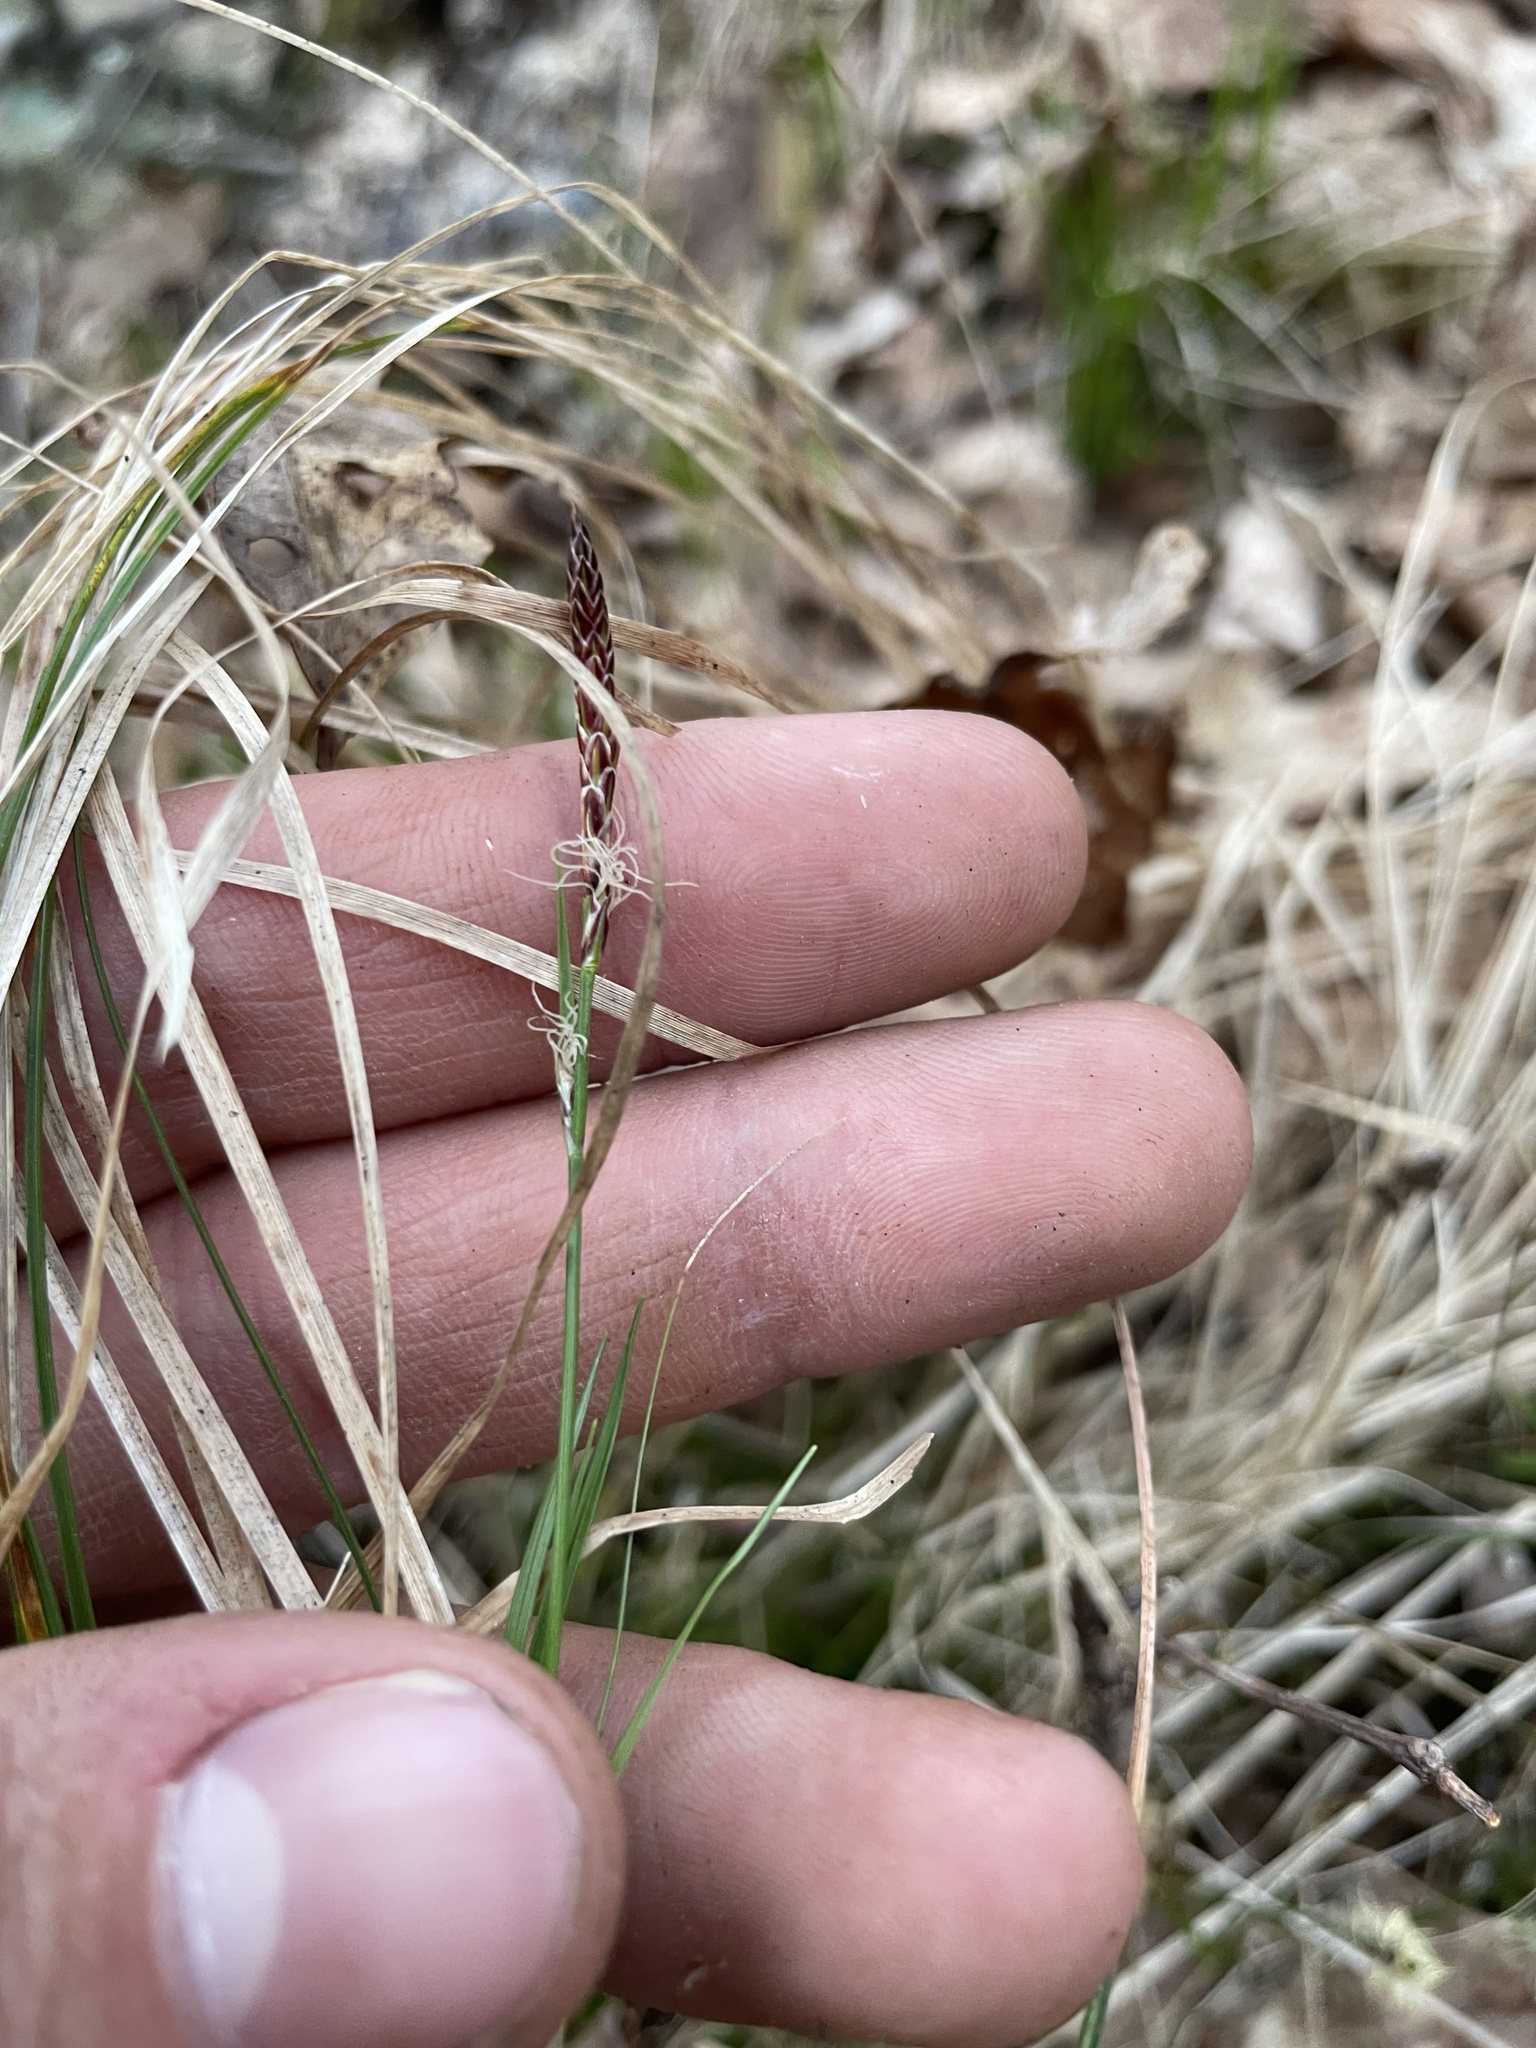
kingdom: Plantae
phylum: Tracheophyta
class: Liliopsida
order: Poales
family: Cyperaceae
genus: Carex
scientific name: Carex austrolucorum
